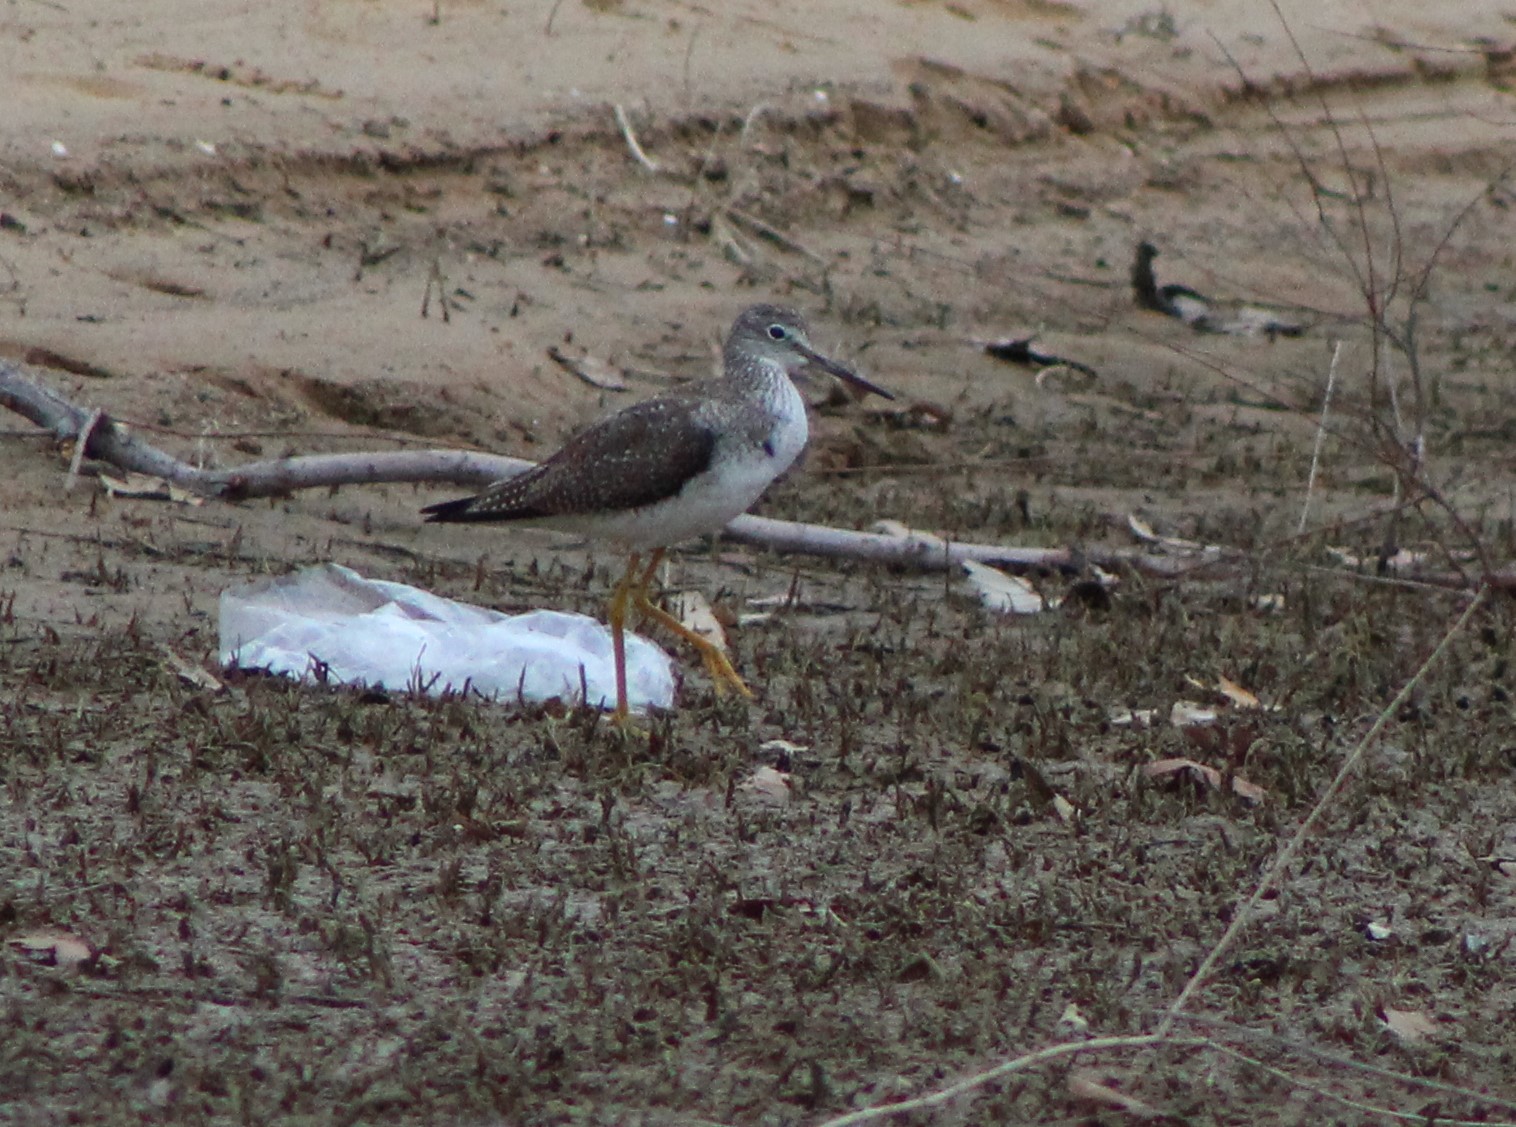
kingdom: Animalia
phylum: Chordata
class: Aves
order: Charadriiformes
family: Scolopacidae
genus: Tringa
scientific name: Tringa melanoleuca
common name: Greater yellowlegs
